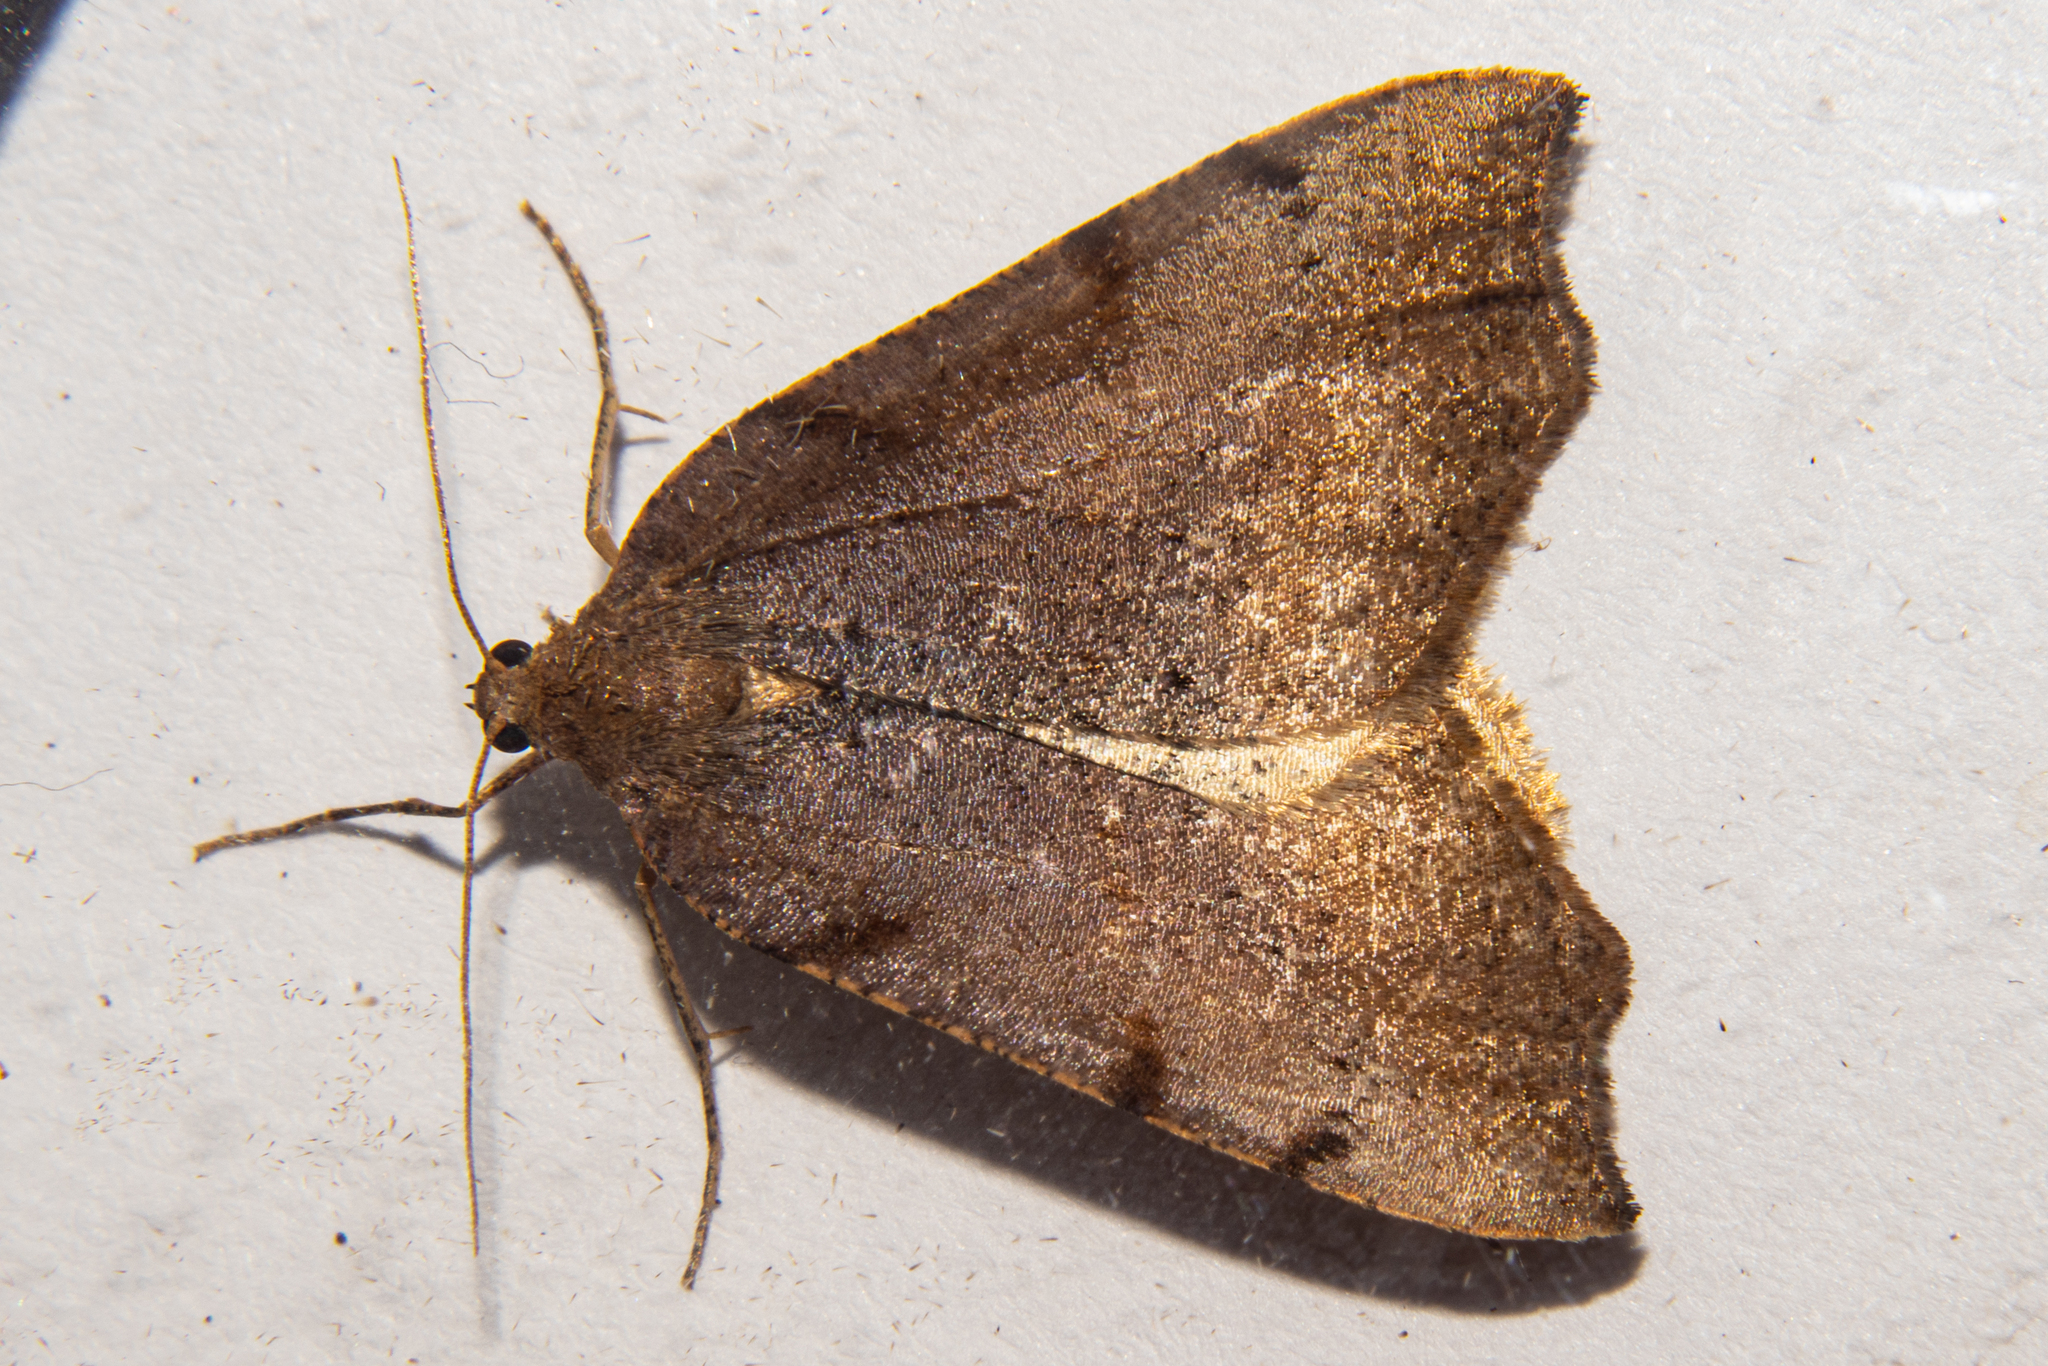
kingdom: Animalia
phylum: Arthropoda
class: Insecta
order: Lepidoptera
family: Geometridae
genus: Sestra
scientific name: Sestra flexata
